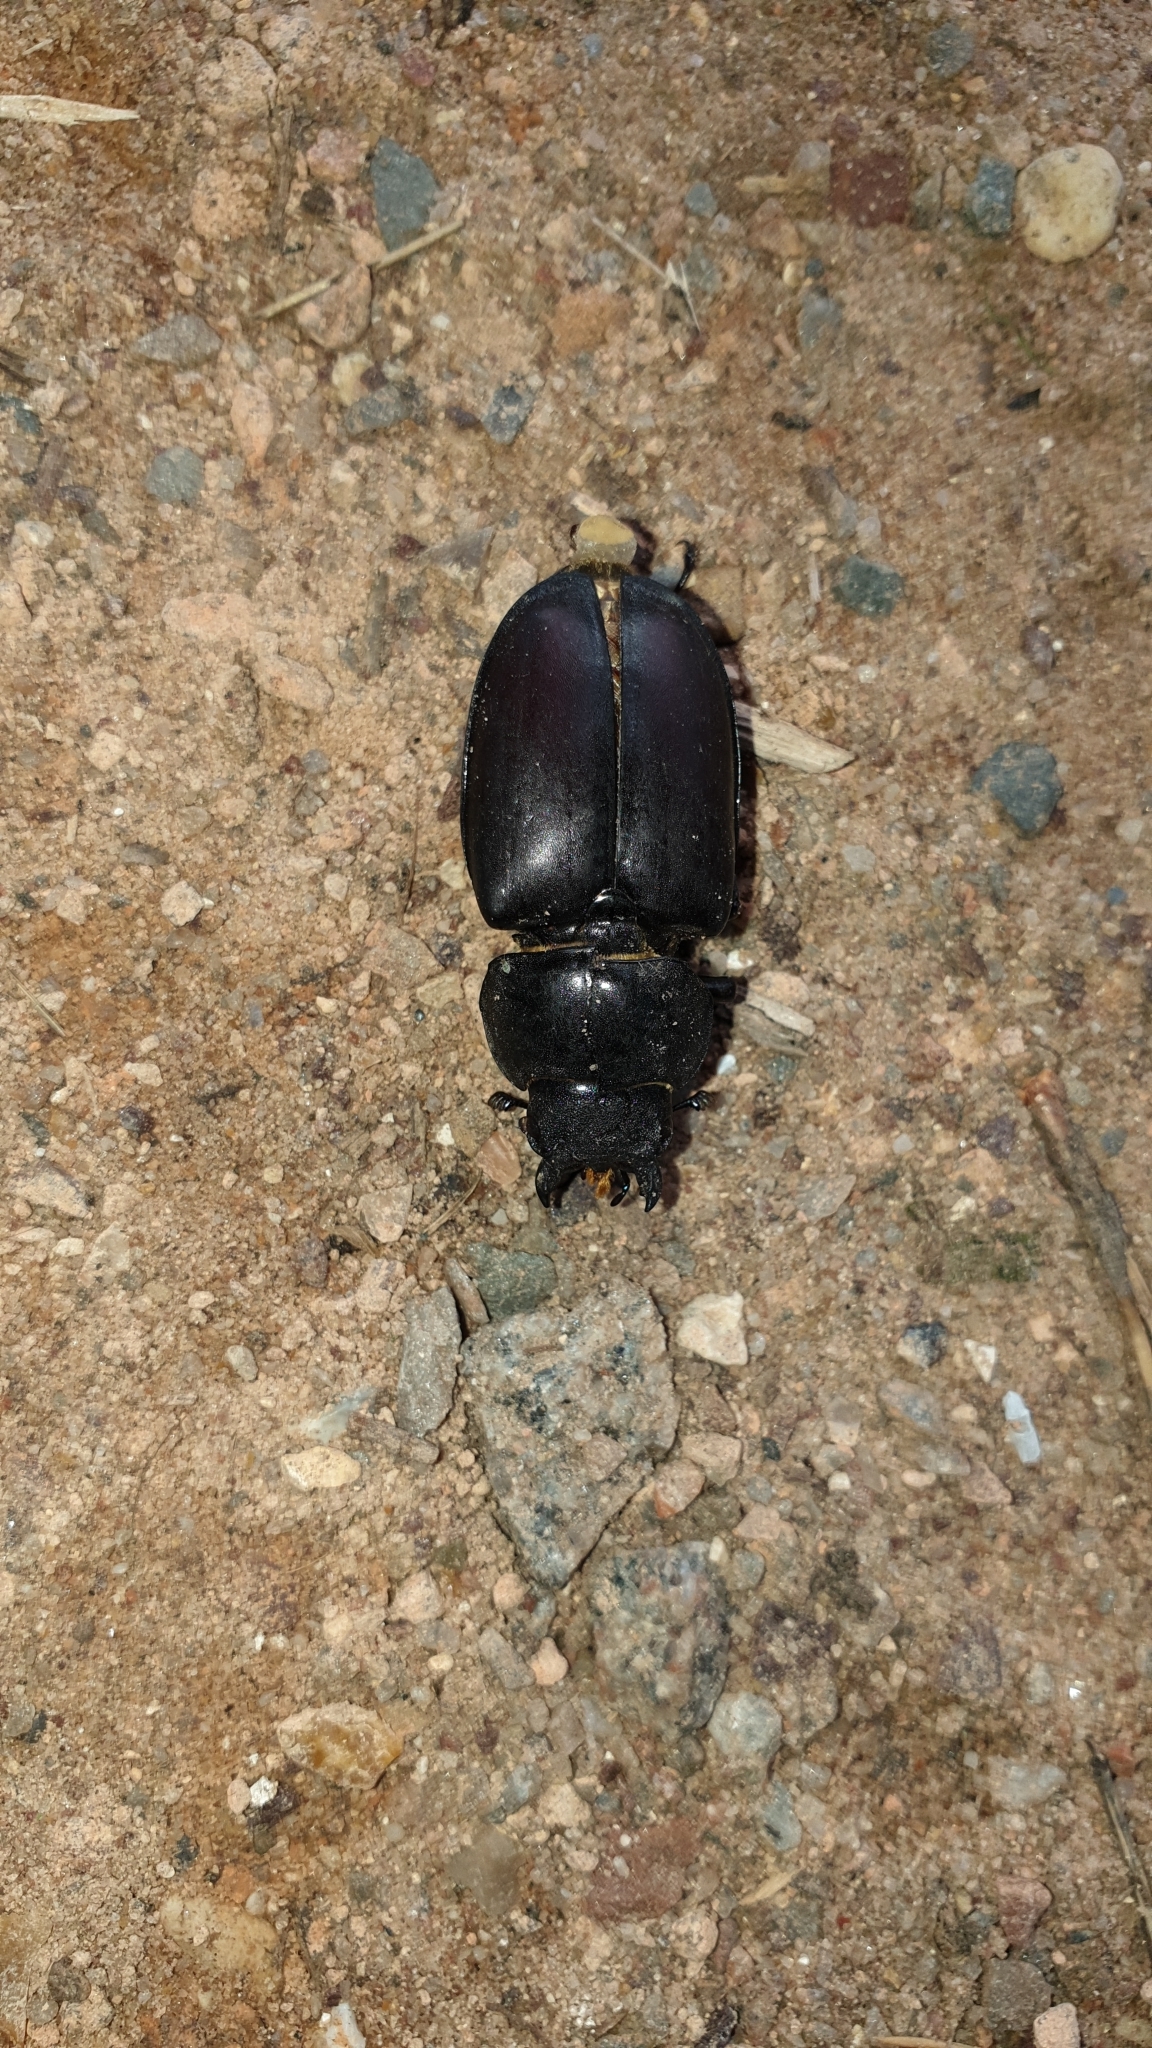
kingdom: Animalia
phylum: Arthropoda
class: Insecta
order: Coleoptera
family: Lucanidae
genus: Lucanus
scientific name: Lucanus cervus
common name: Stag beetle
